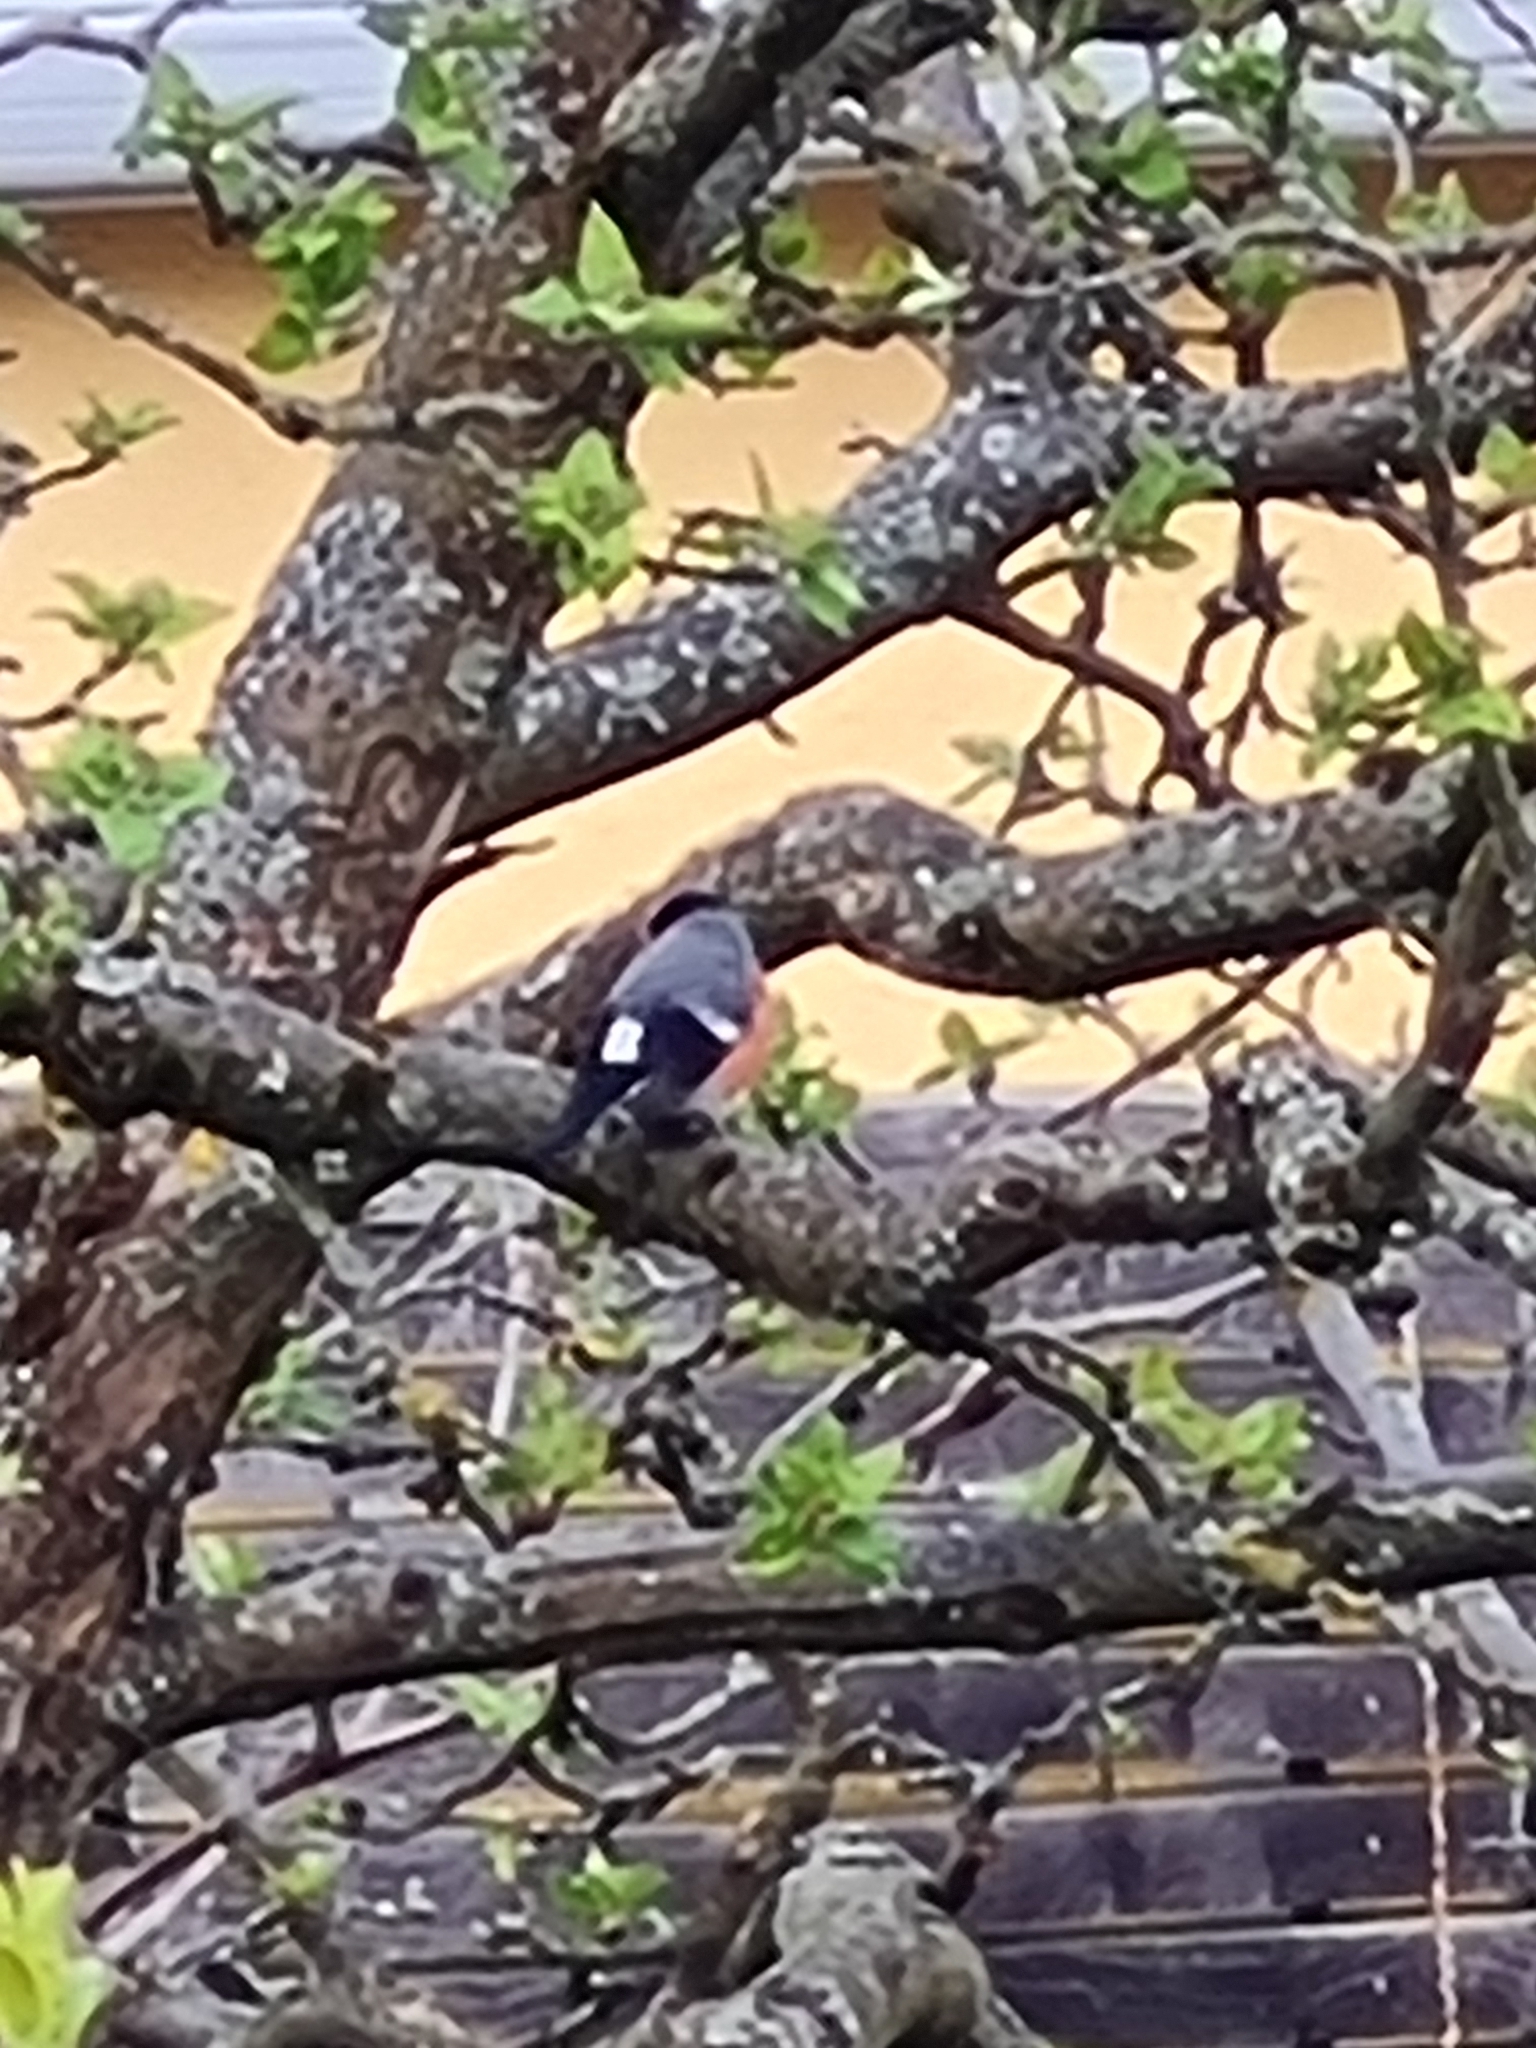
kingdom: Animalia
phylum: Chordata
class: Aves
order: Passeriformes
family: Fringillidae
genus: Pyrrhula
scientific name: Pyrrhula pyrrhula
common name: Eurasian bullfinch
